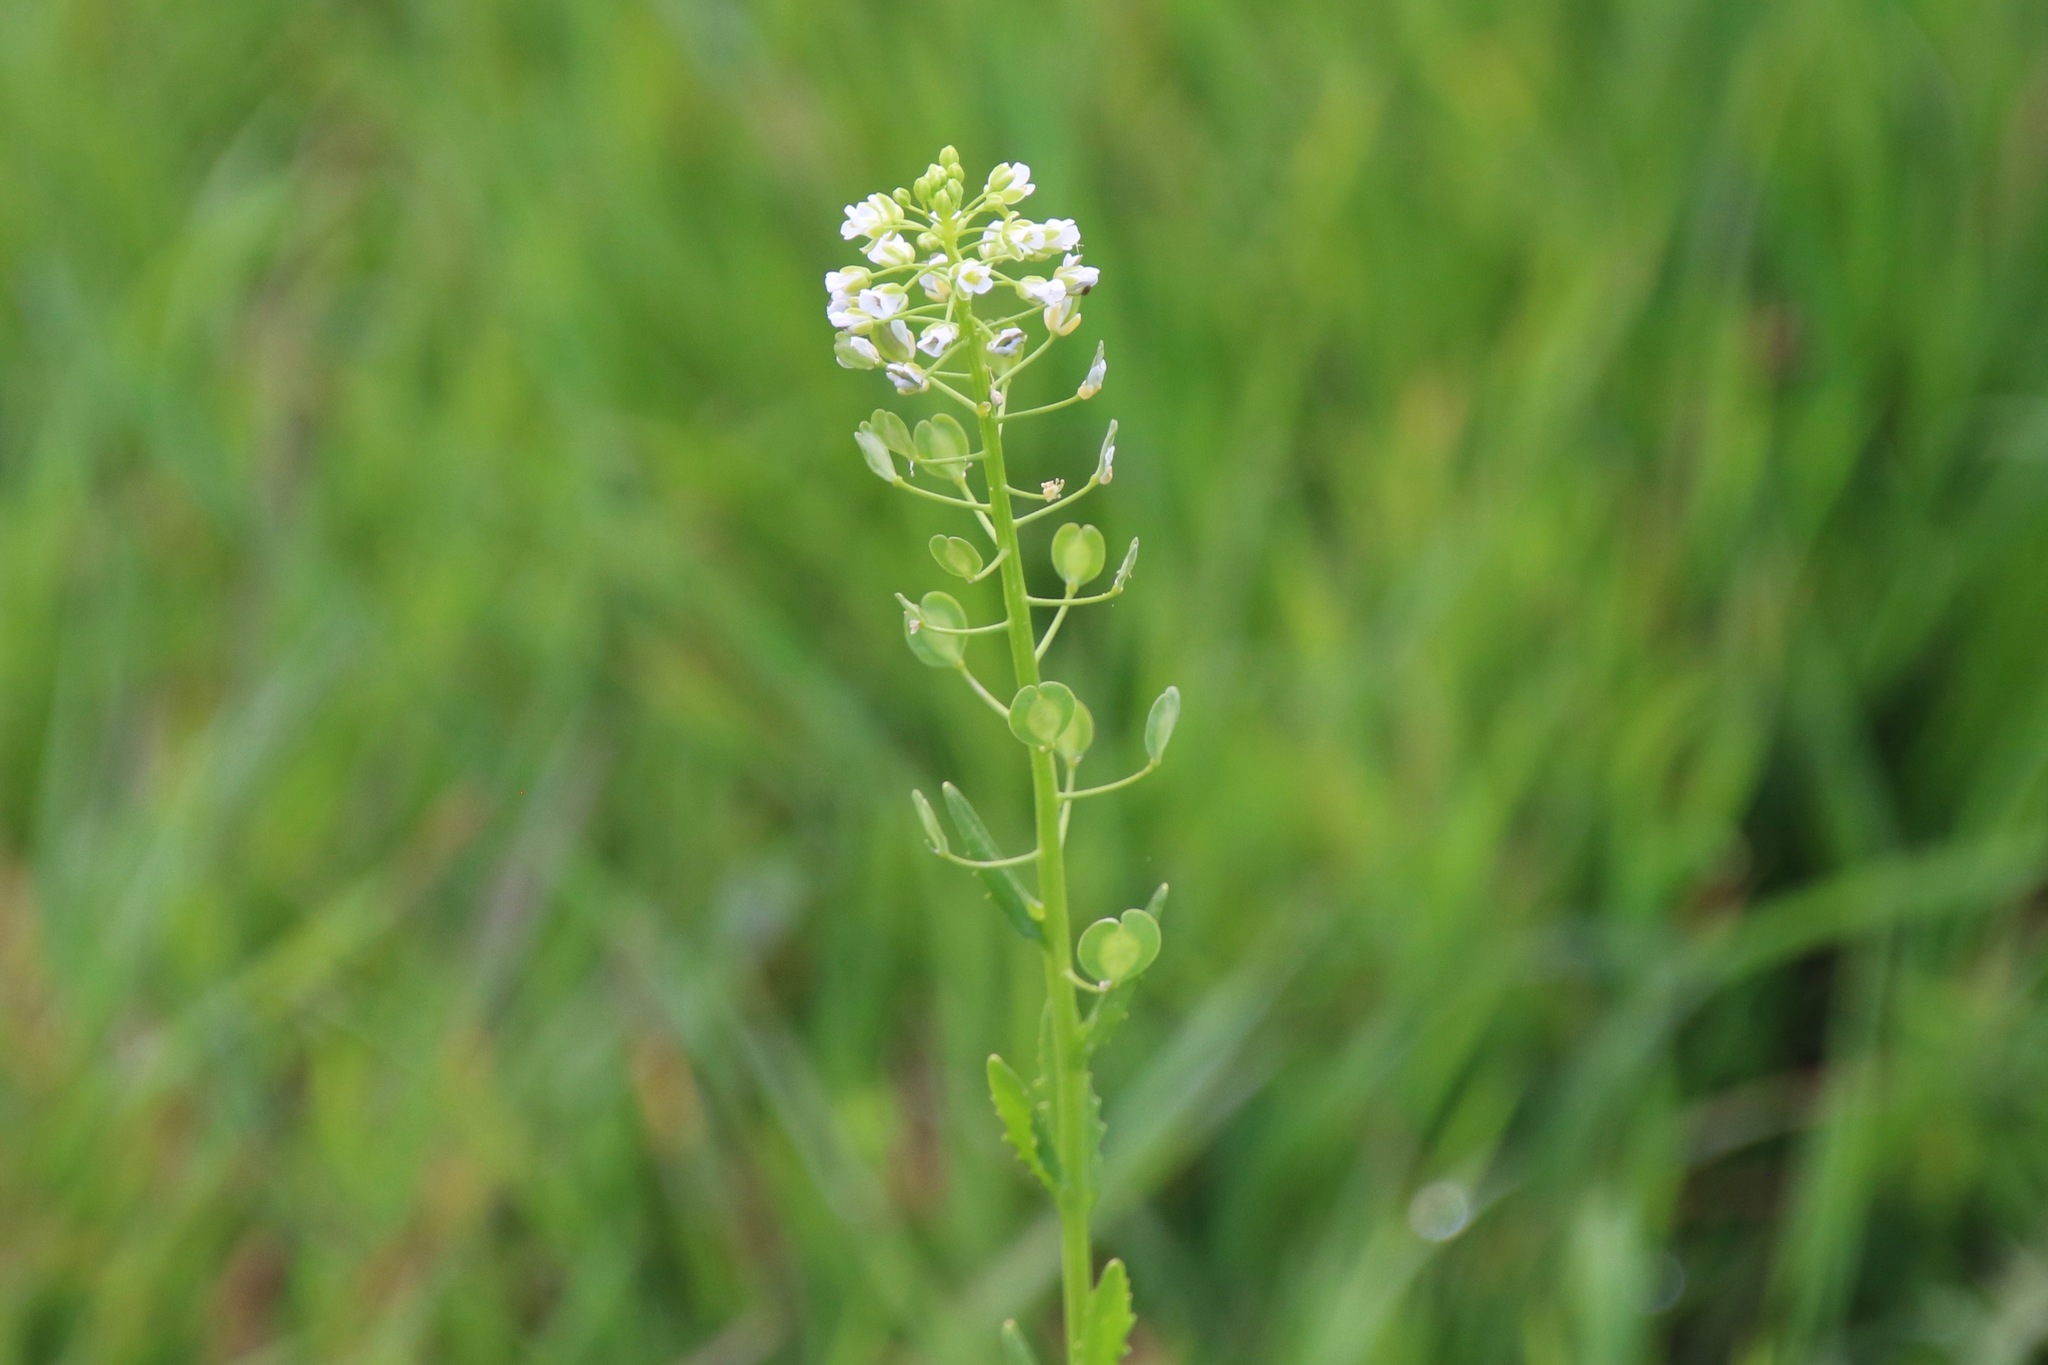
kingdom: Plantae
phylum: Tracheophyta
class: Magnoliopsida
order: Brassicales
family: Brassicaceae
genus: Thlaspi
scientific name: Thlaspi arvense
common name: Field pennycress
